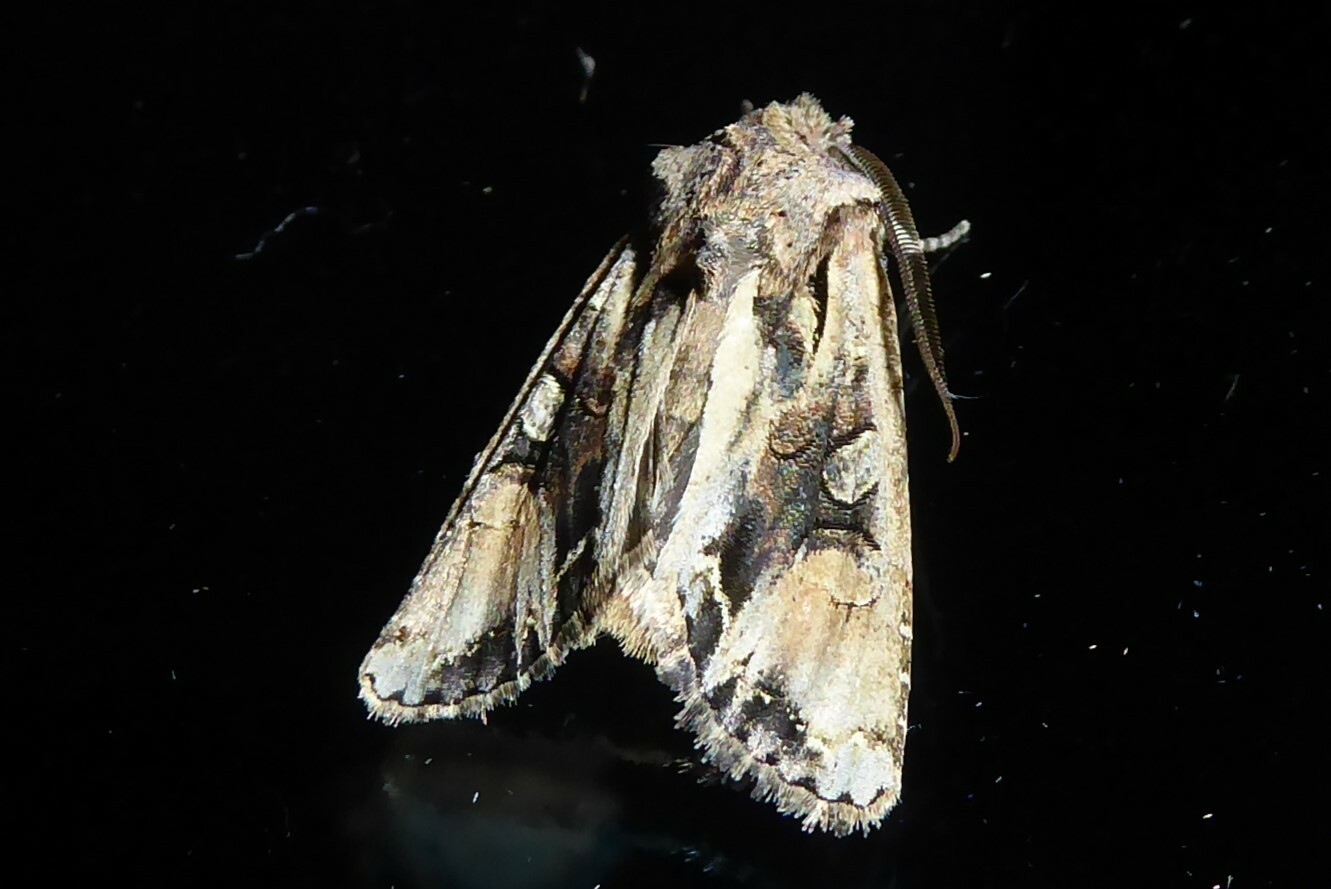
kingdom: Animalia
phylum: Arthropoda
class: Insecta
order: Lepidoptera
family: Noctuidae
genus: Ichneutica
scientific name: Ichneutica
